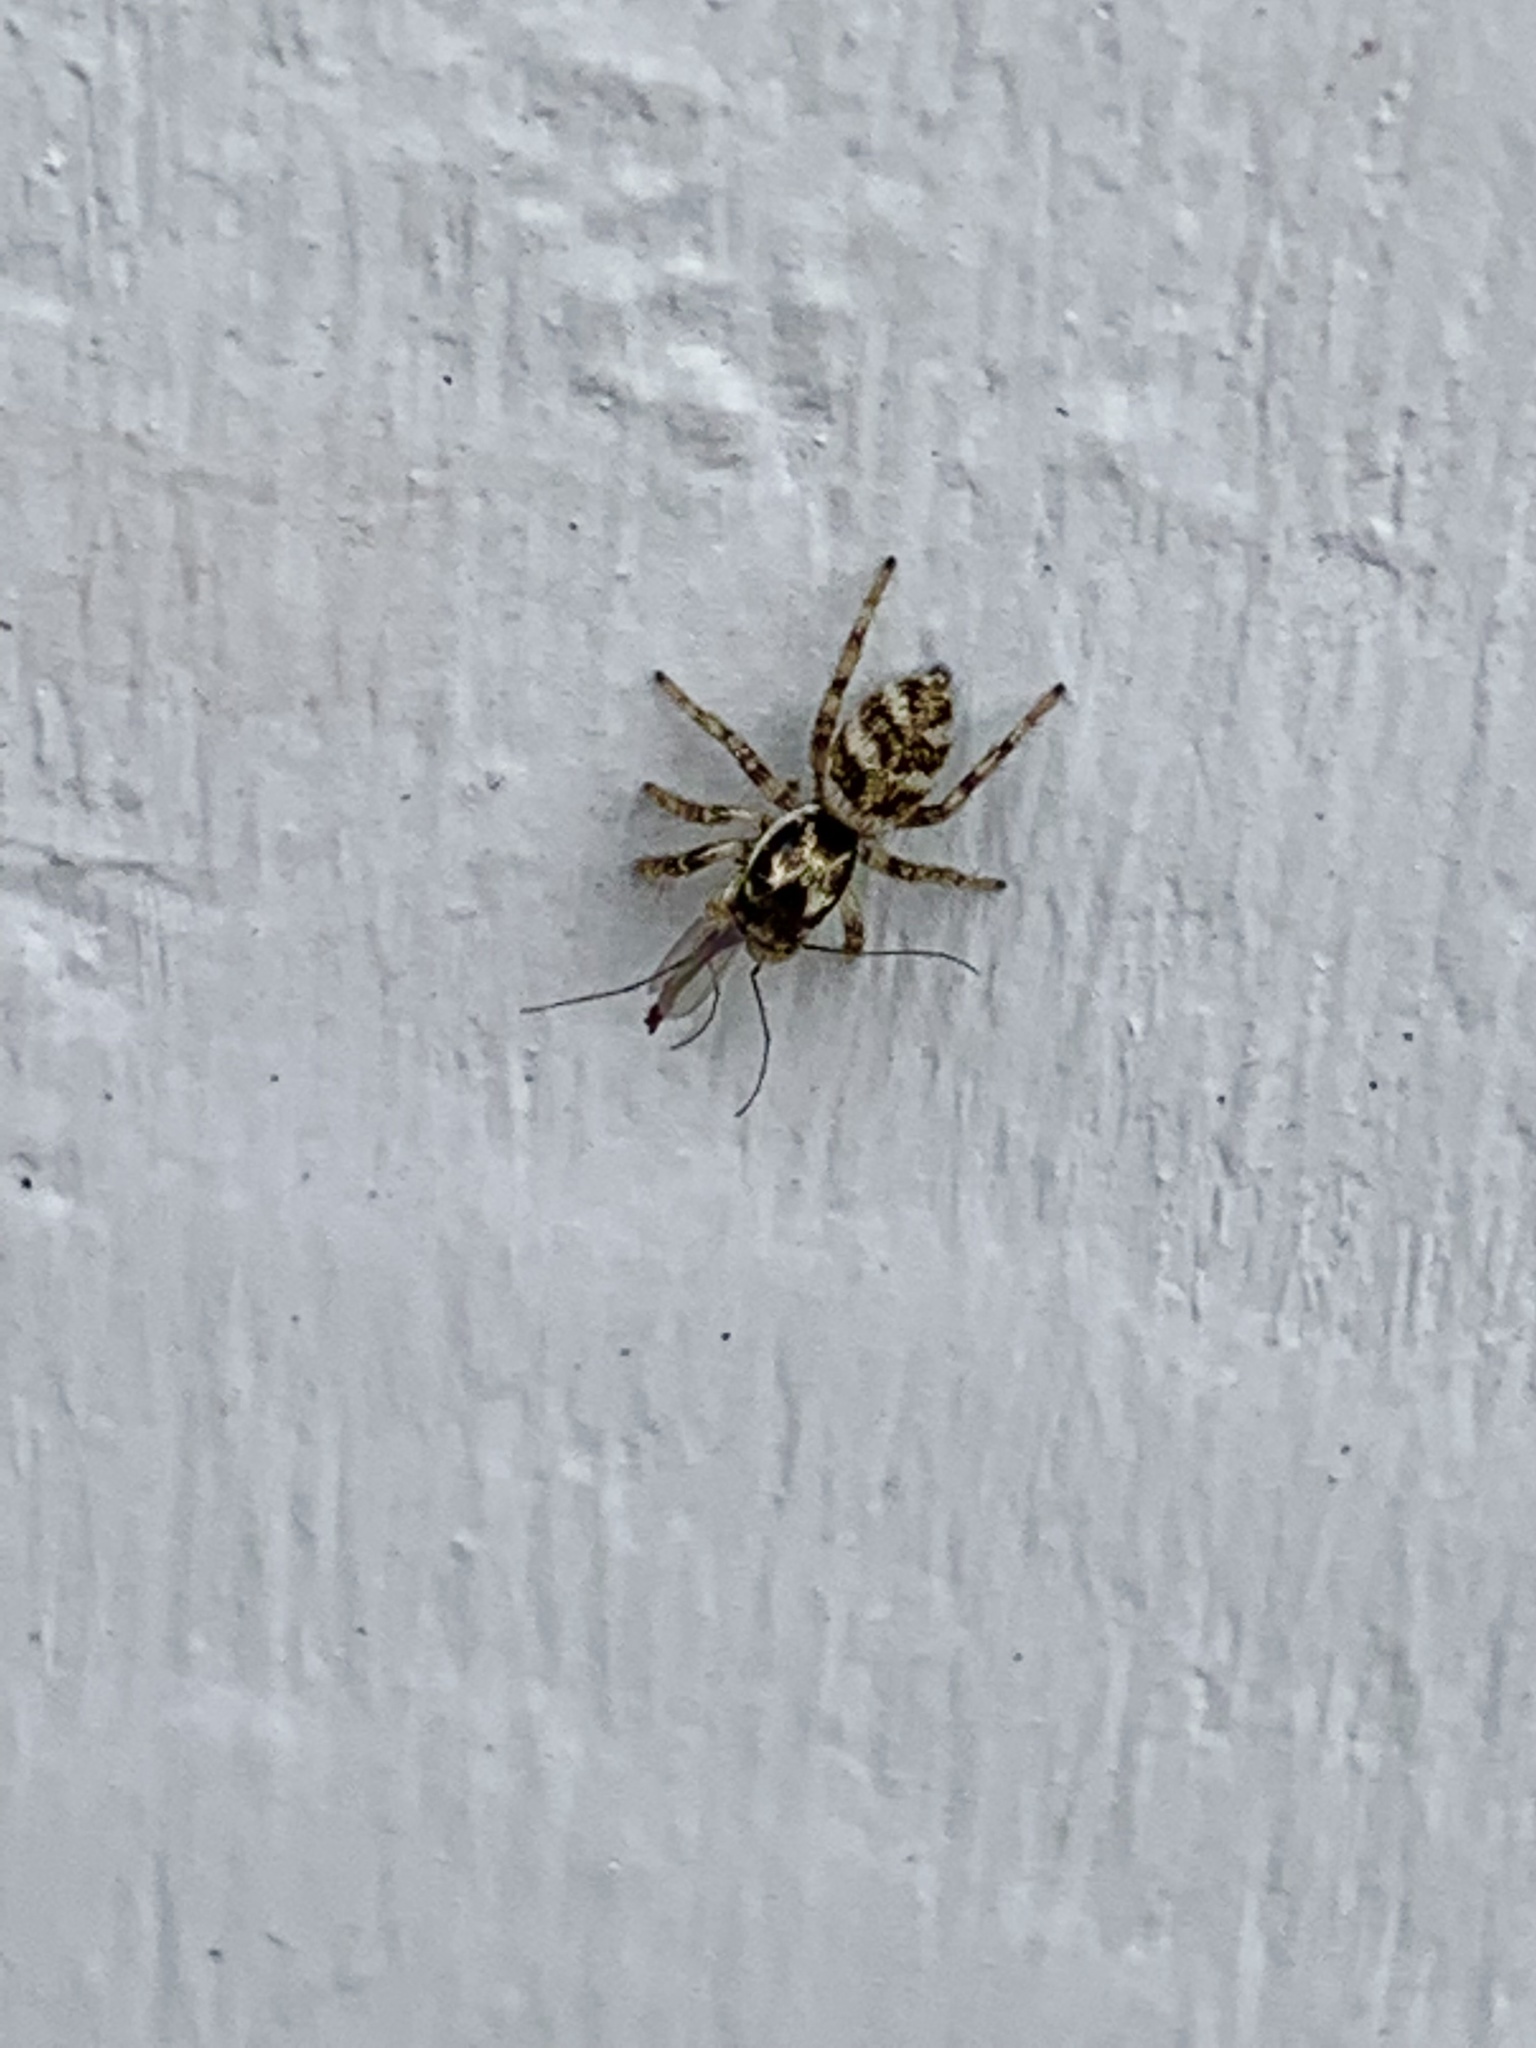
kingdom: Animalia
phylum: Arthropoda
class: Arachnida
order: Araneae
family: Salticidae
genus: Salticus
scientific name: Salticus scenicus
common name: Zebra jumper
